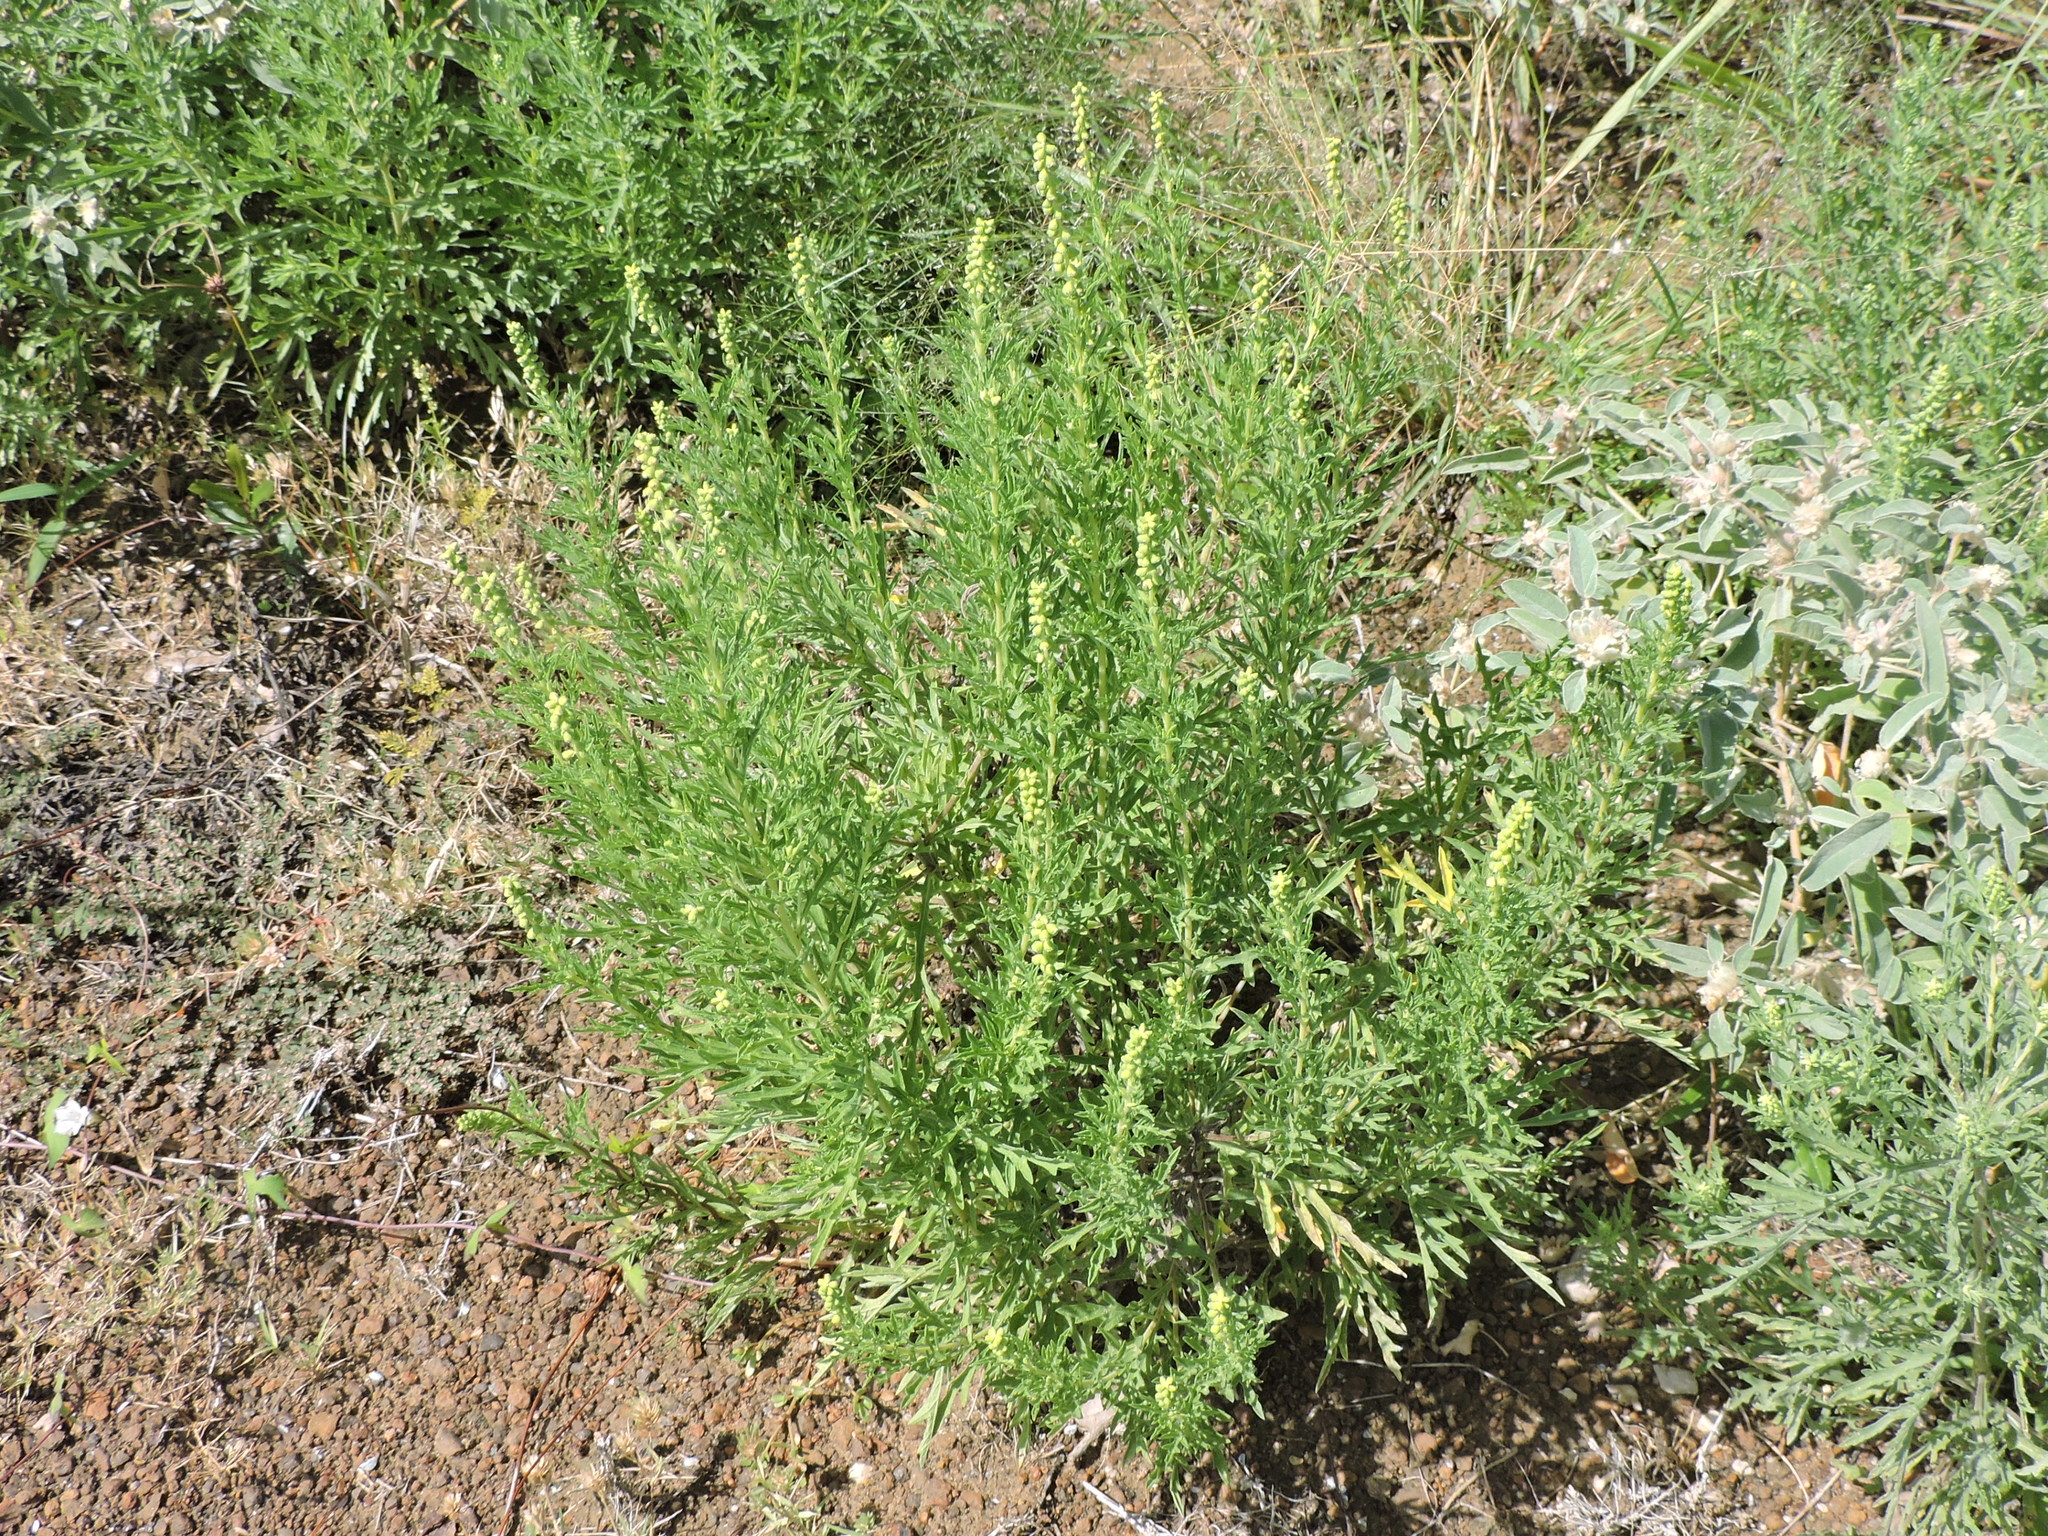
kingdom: Plantae
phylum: Tracheophyta
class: Magnoliopsida
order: Asterales
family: Asteraceae
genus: Ambrosia
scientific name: Ambrosia psilostachya
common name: Perennial ragweed
